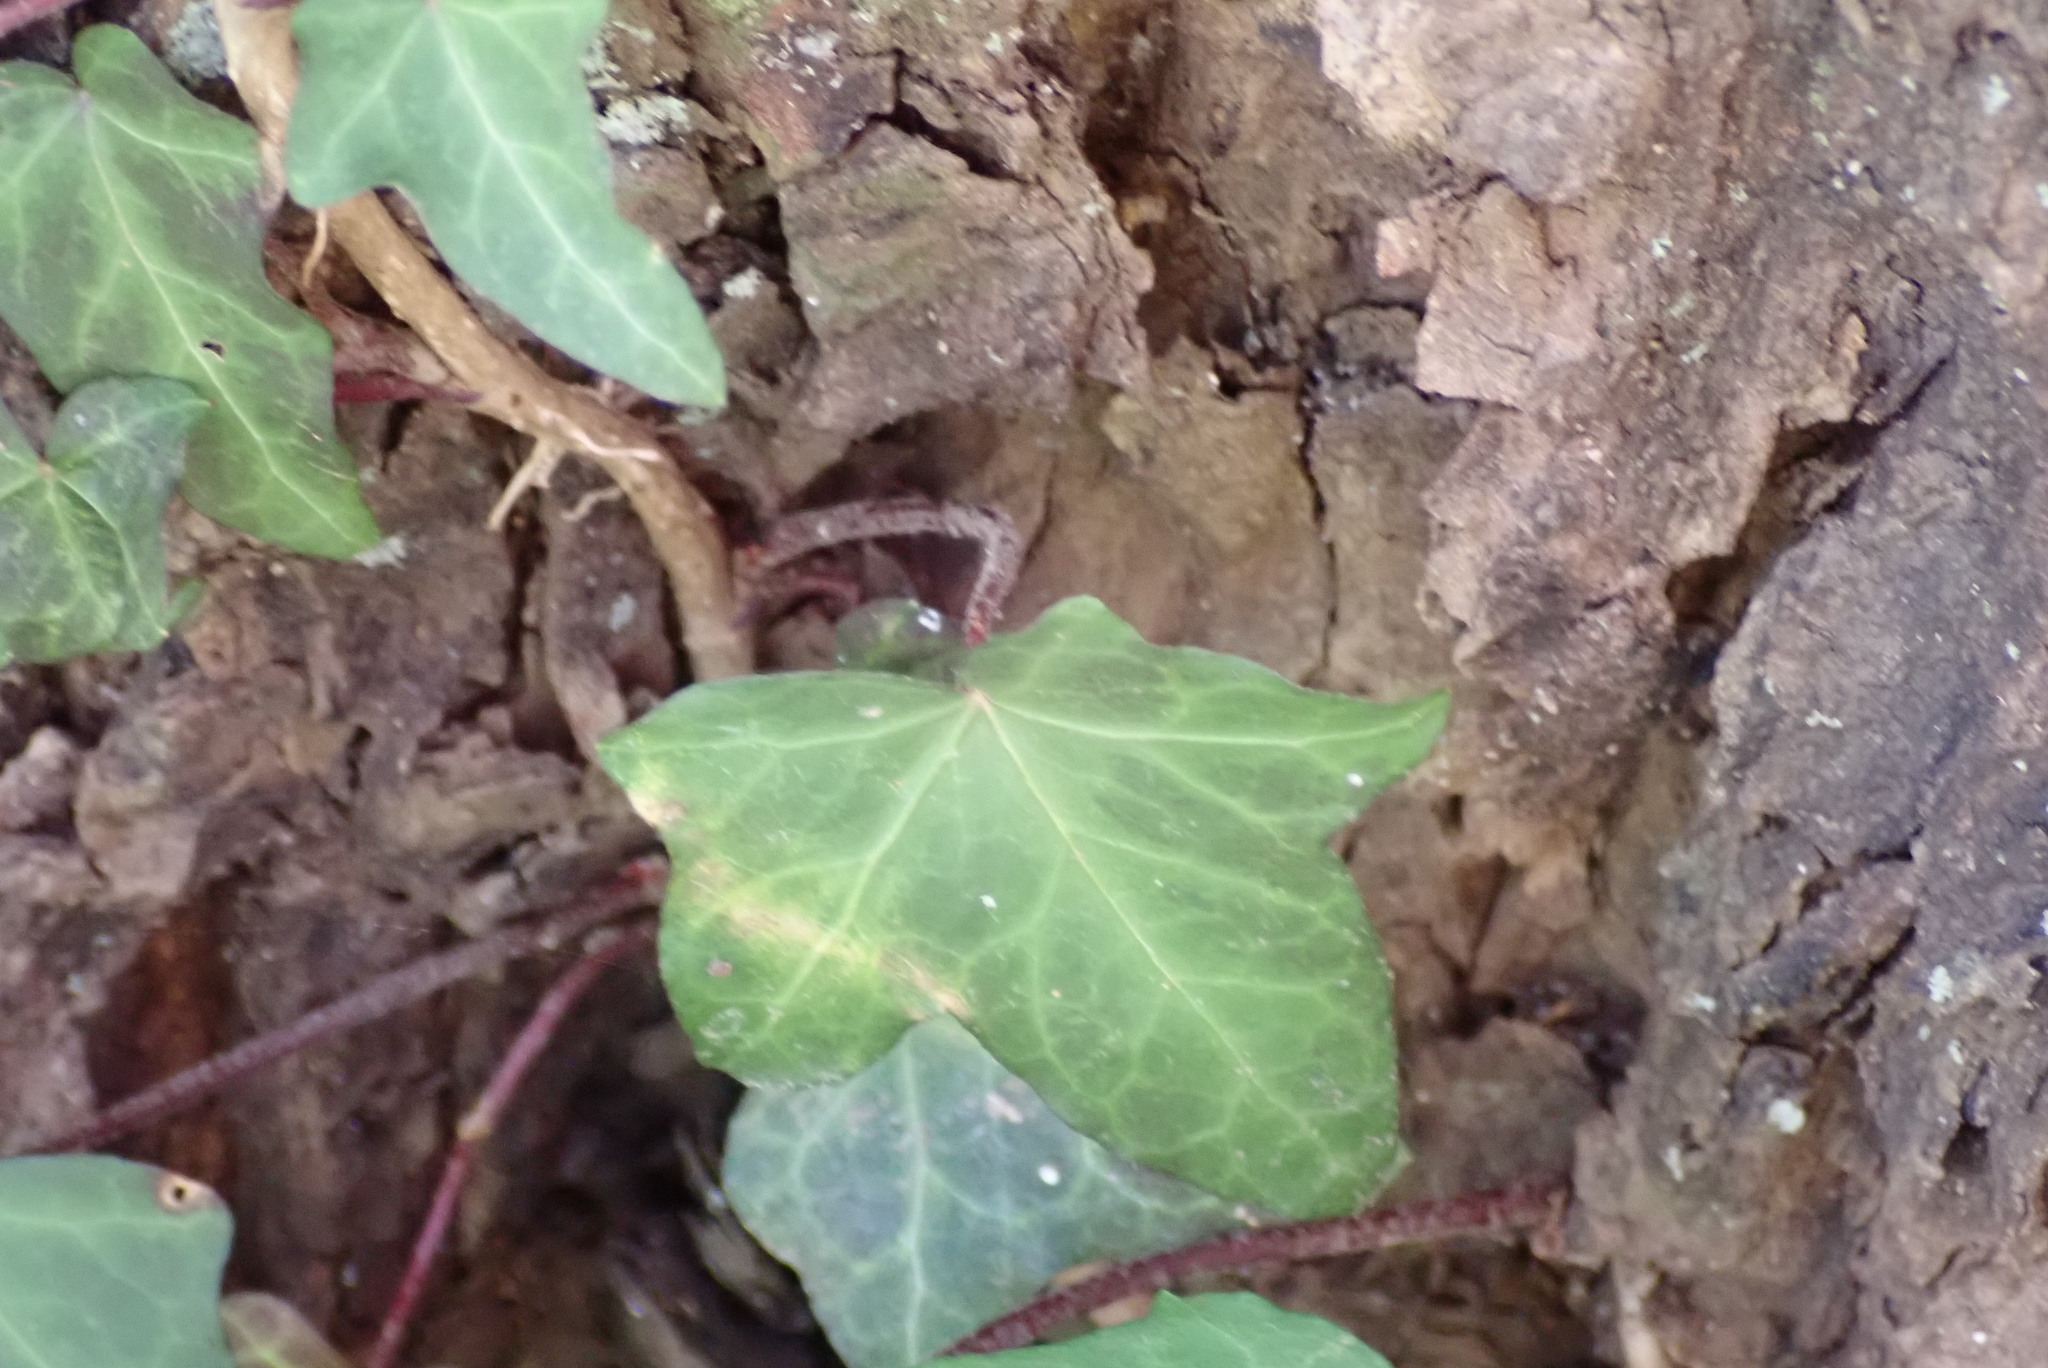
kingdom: Plantae
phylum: Tracheophyta
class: Magnoliopsida
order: Apiales
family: Araliaceae
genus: Hedera
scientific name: Hedera helix
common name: Ivy
